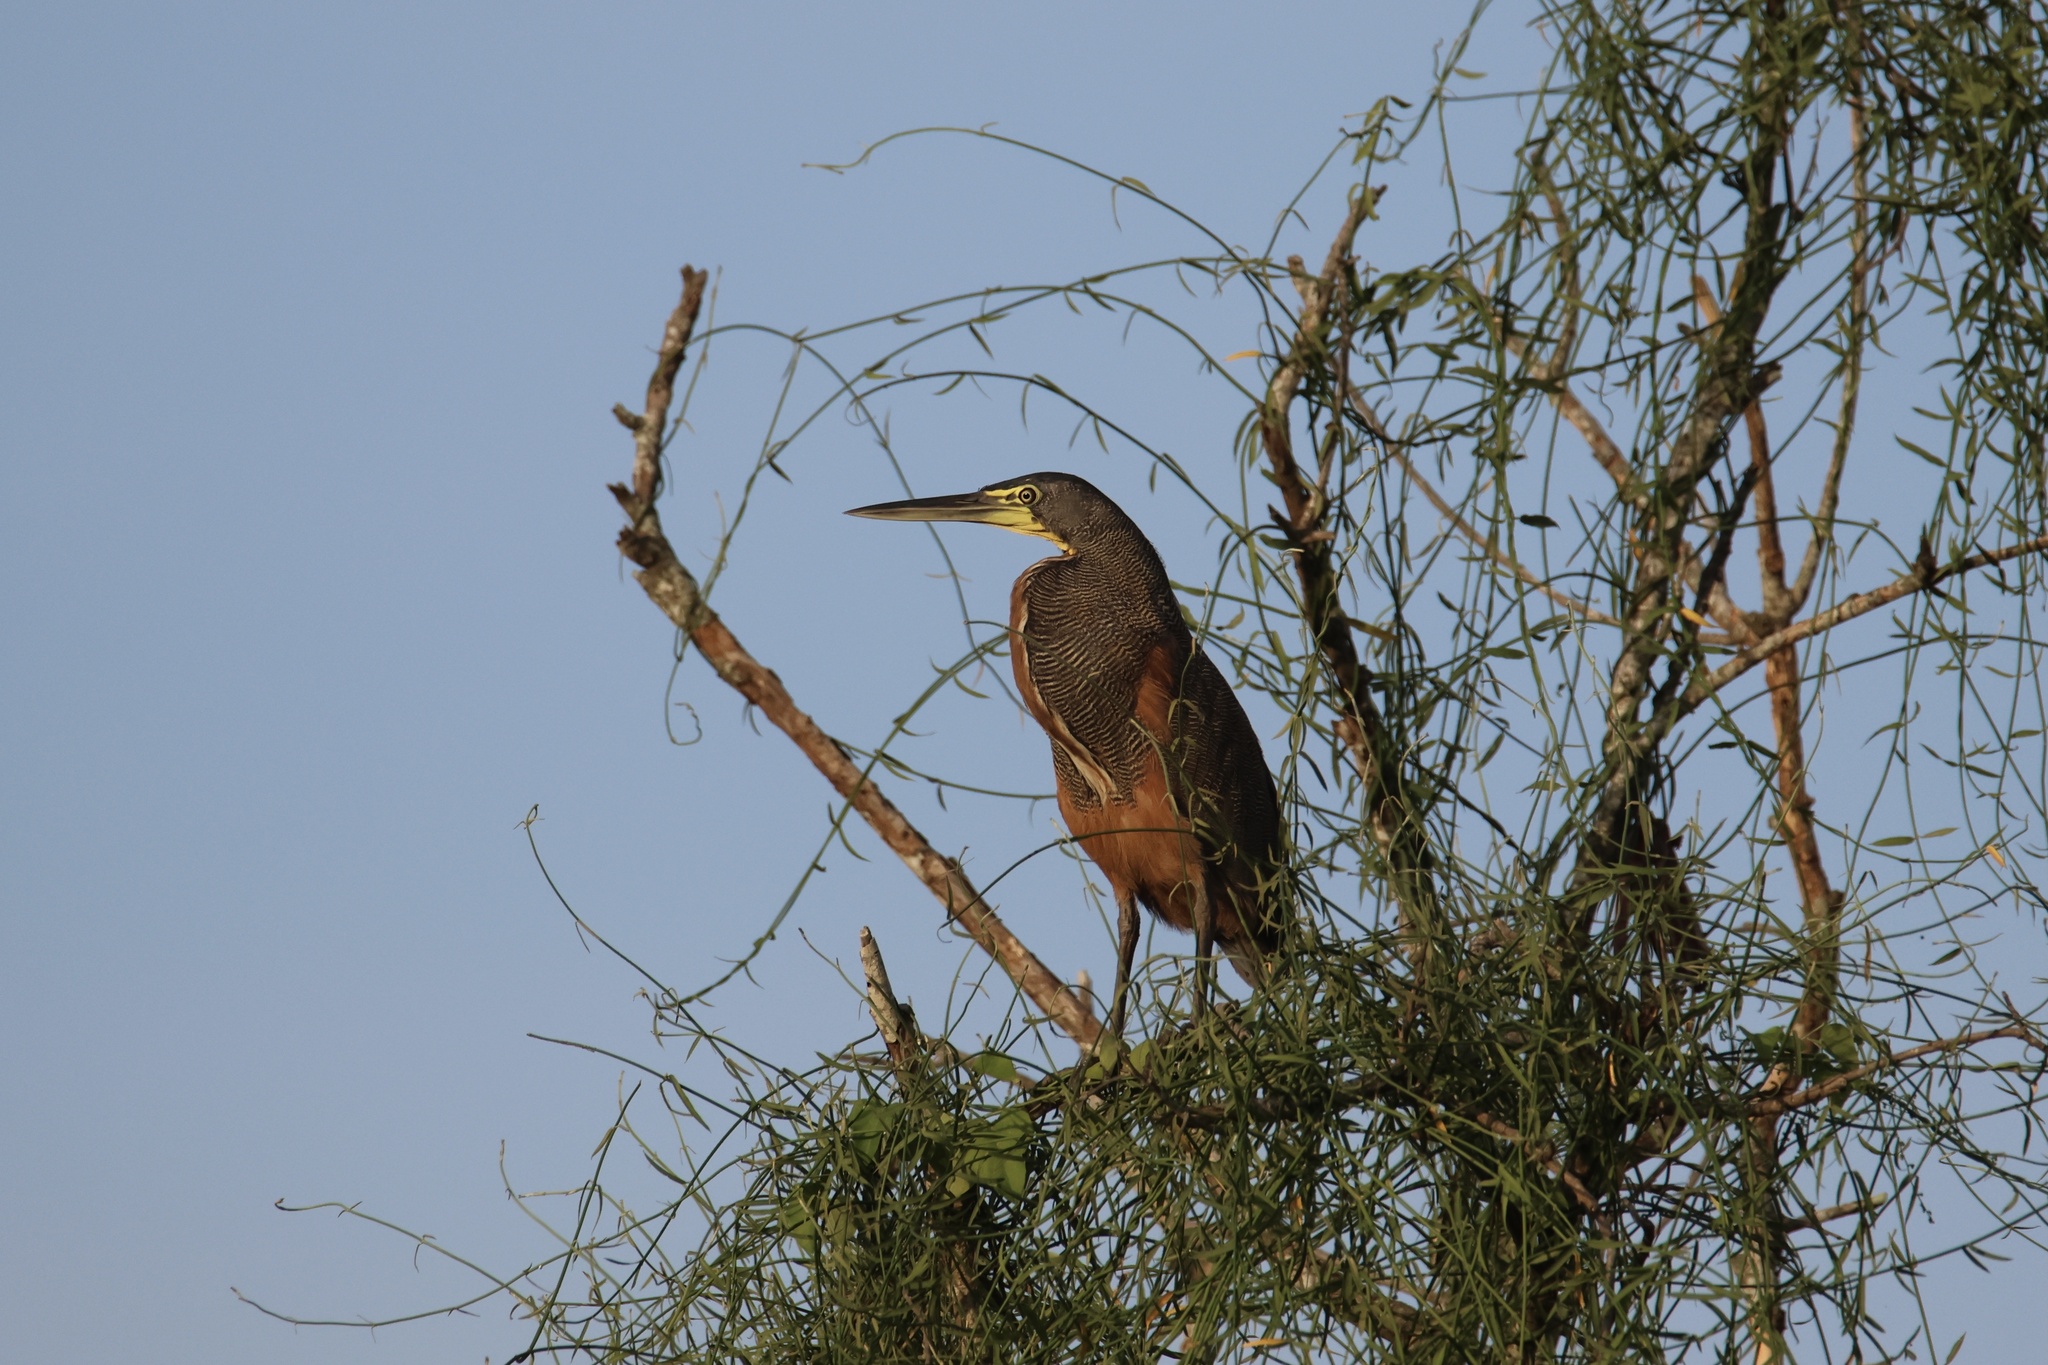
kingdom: Animalia
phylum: Chordata
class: Aves
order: Pelecaniformes
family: Ardeidae
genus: Tigrisoma
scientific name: Tigrisoma mexicanum
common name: Bare-throated tiger-heron
